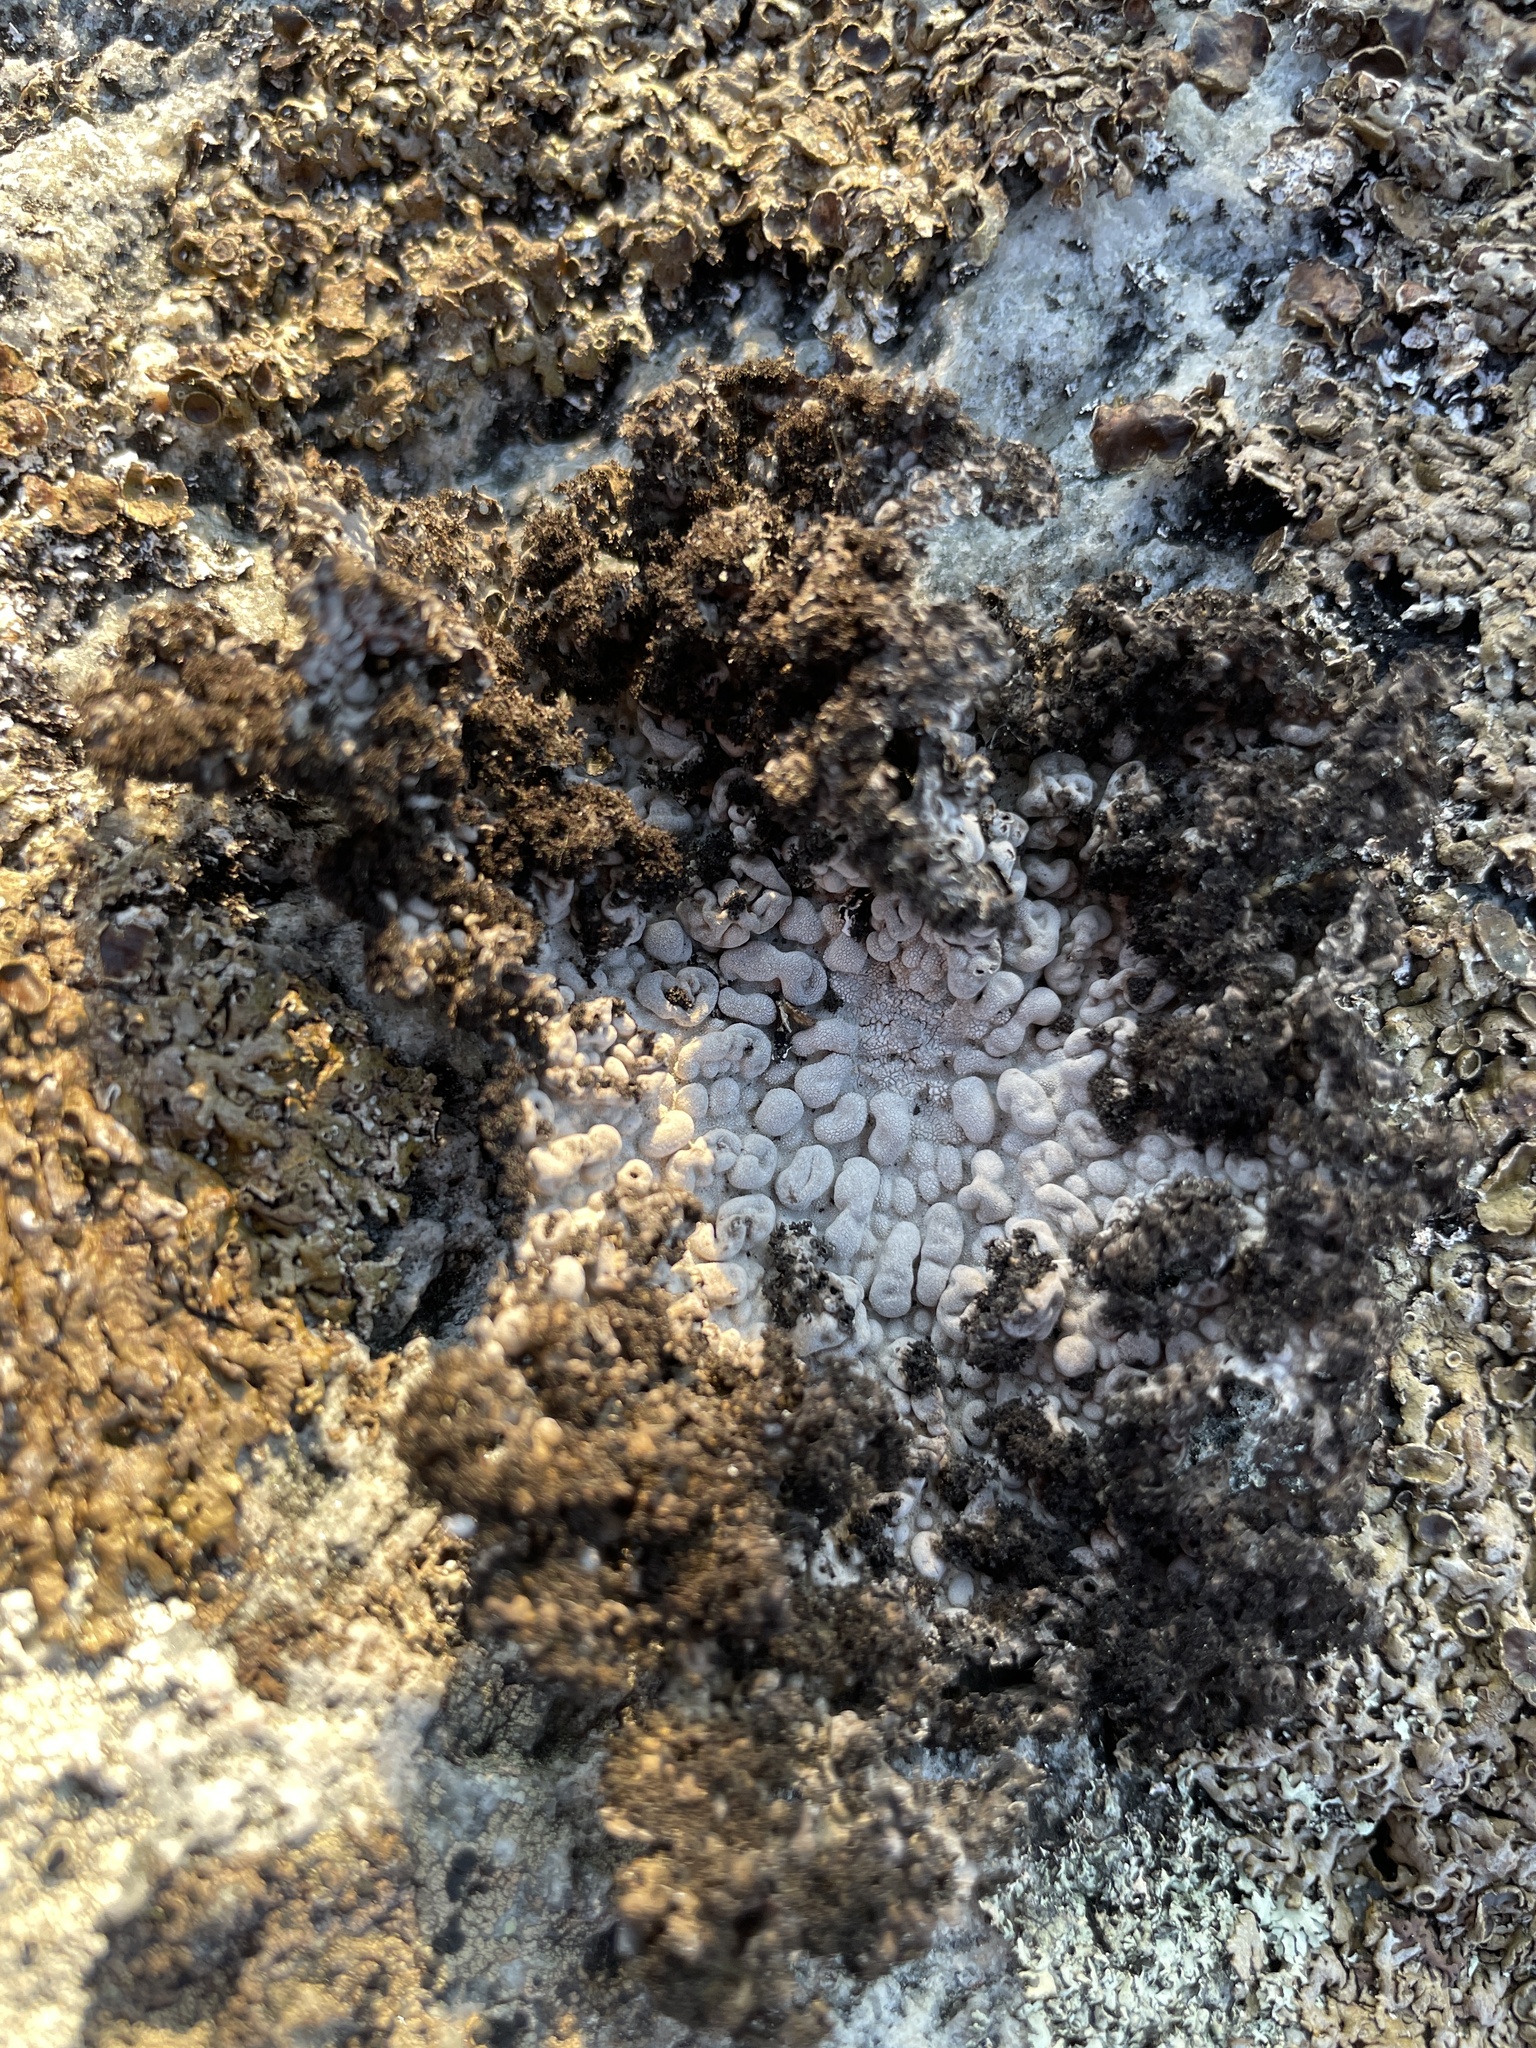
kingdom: Fungi
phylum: Ascomycota
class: Lecanoromycetes
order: Umbilicariales
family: Umbilicariaceae
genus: Lasallia
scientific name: Lasallia pustulata
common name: Blistered toadskin lichen
